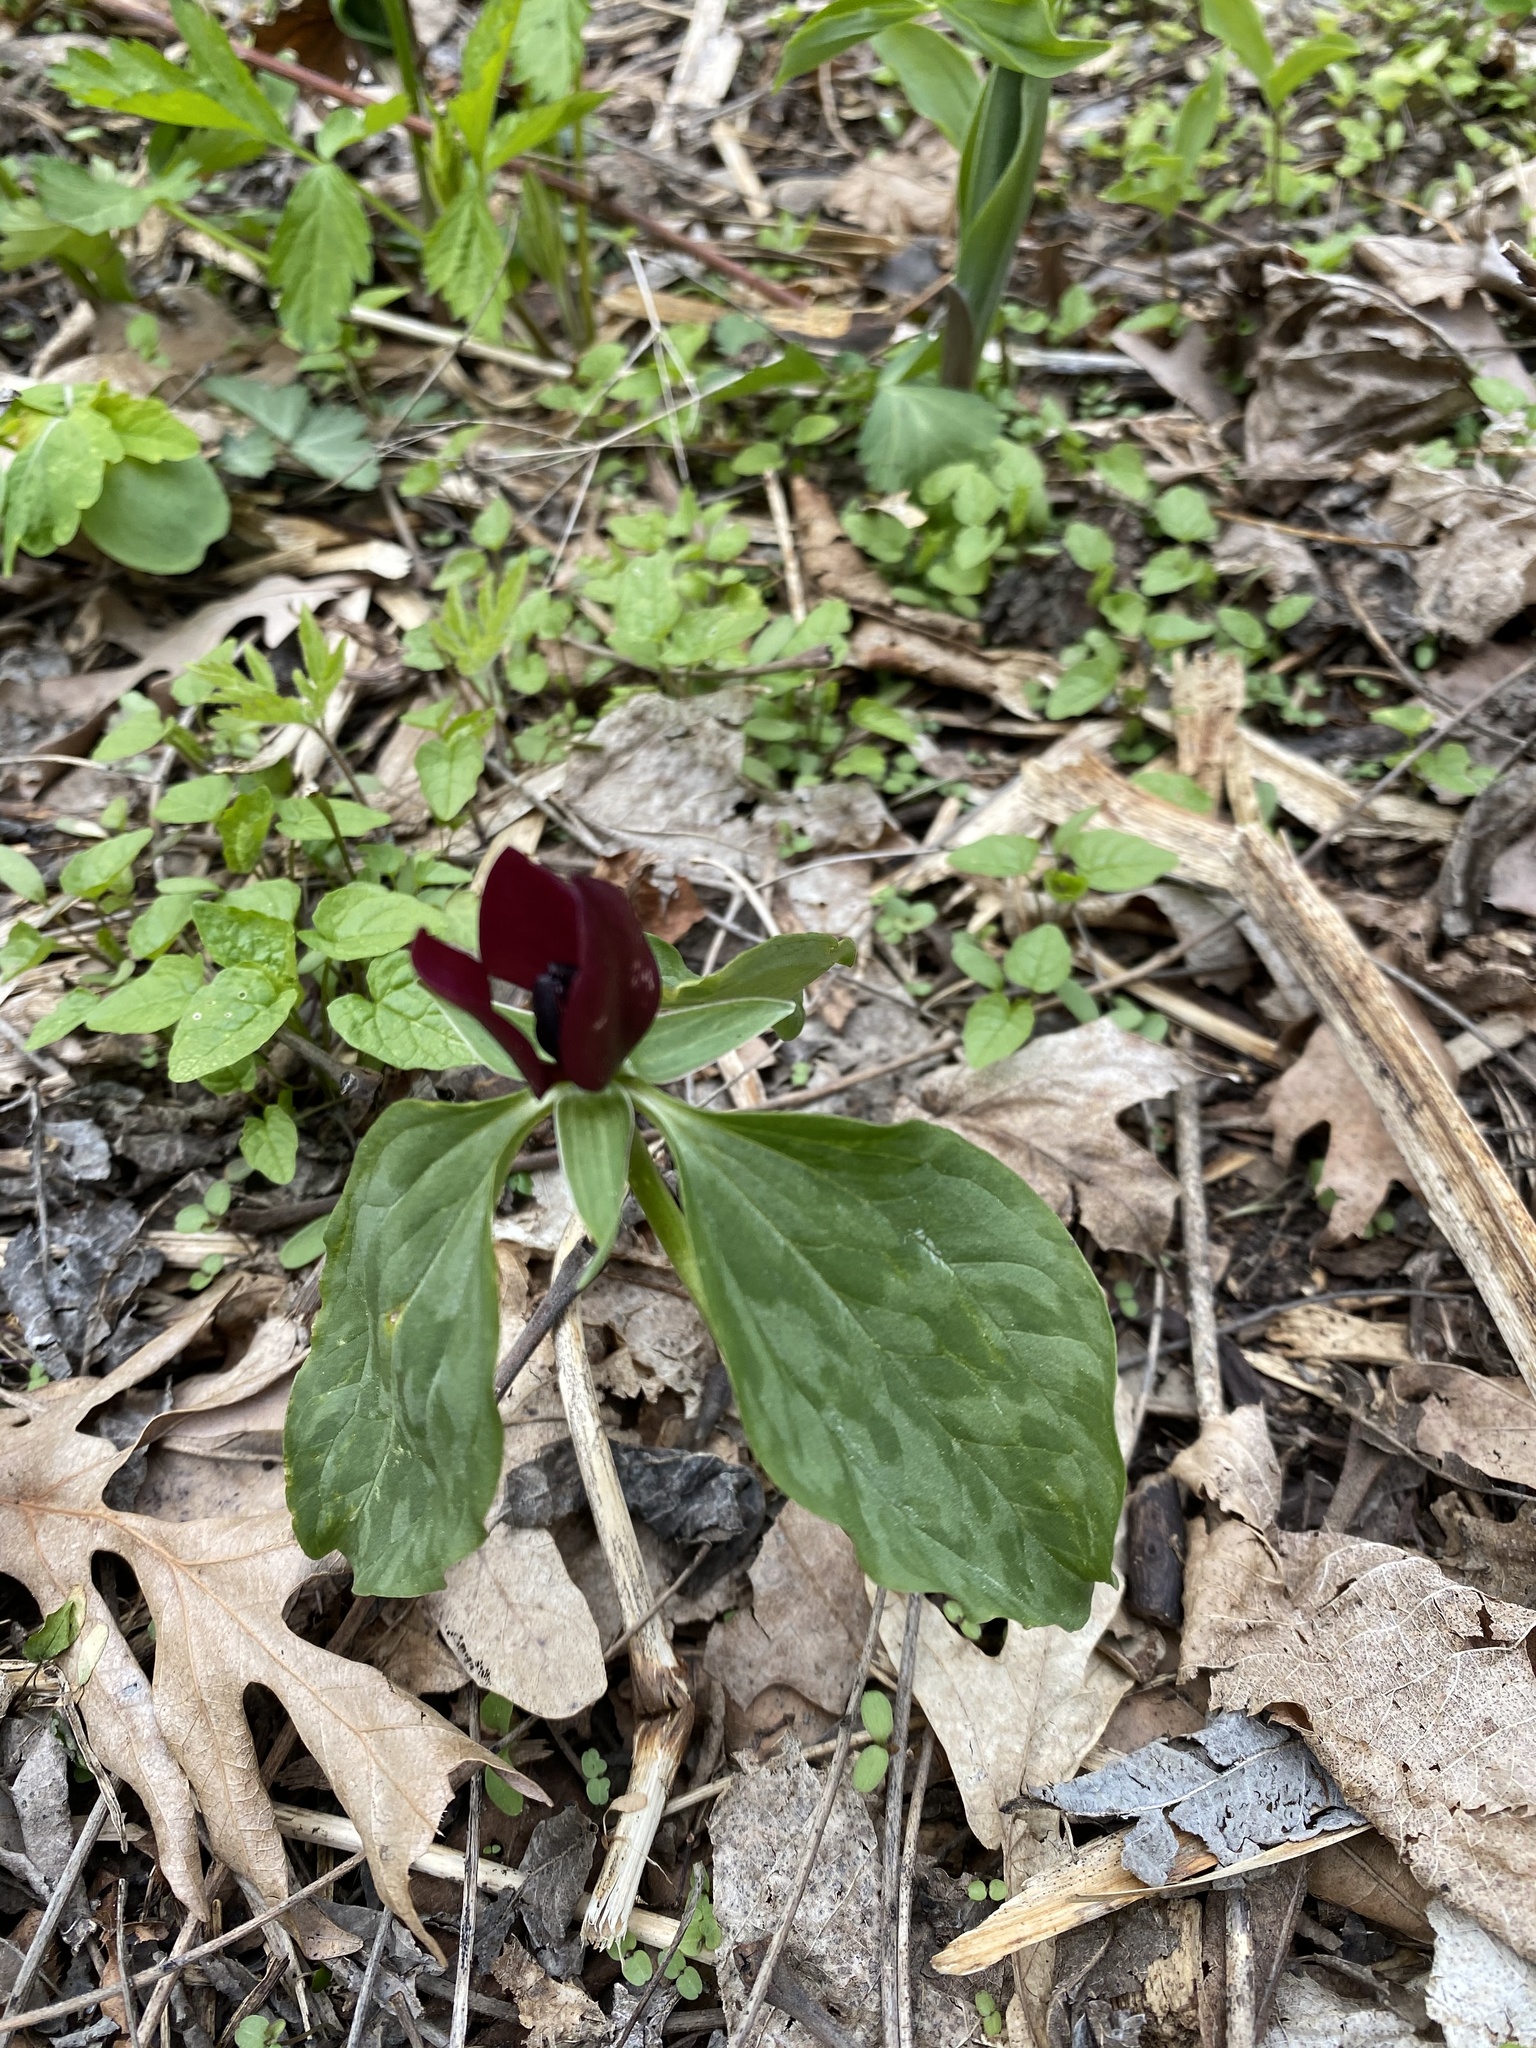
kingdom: Plantae
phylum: Tracheophyta
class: Liliopsida
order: Liliales
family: Melanthiaceae
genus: Trillium
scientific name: Trillium recurvatum
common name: Bloody butcher
